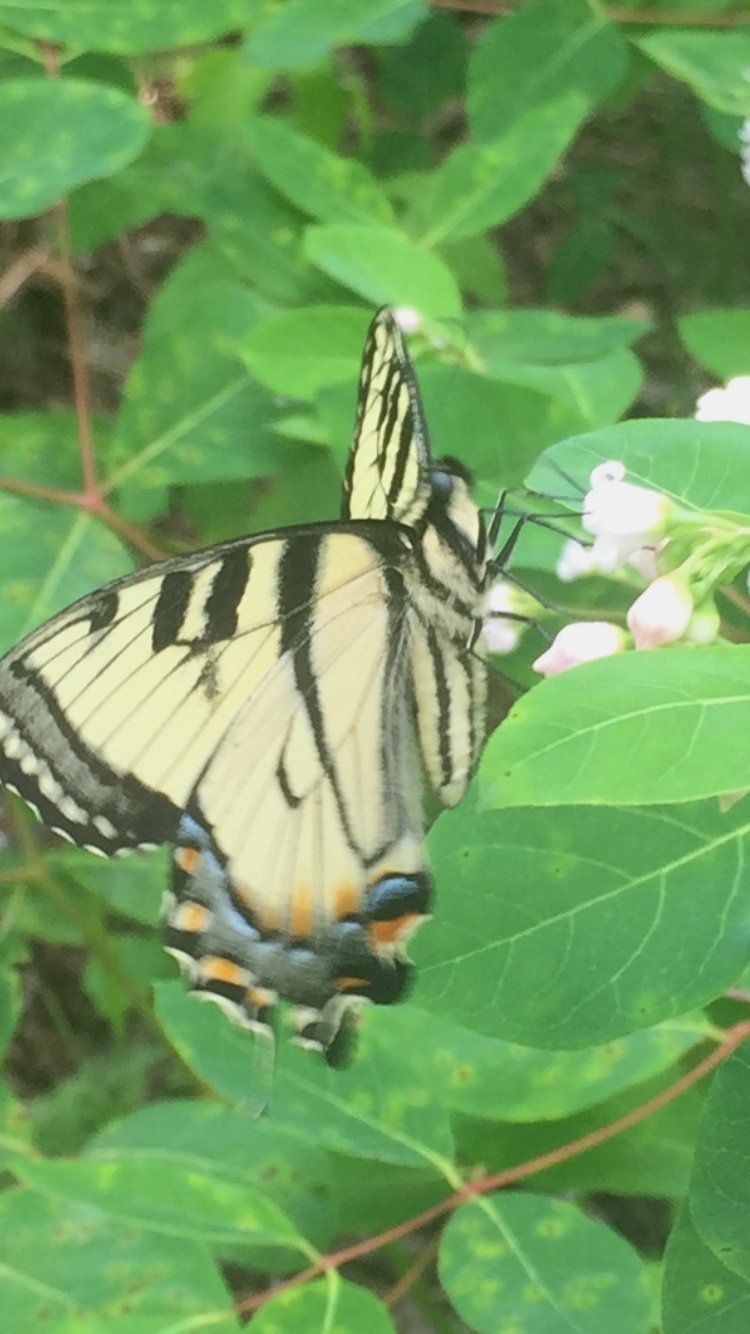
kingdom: Animalia
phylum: Arthropoda
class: Insecta
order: Lepidoptera
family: Papilionidae
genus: Papilio
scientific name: Papilio canadensis
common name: Canadian tiger swallowtail
